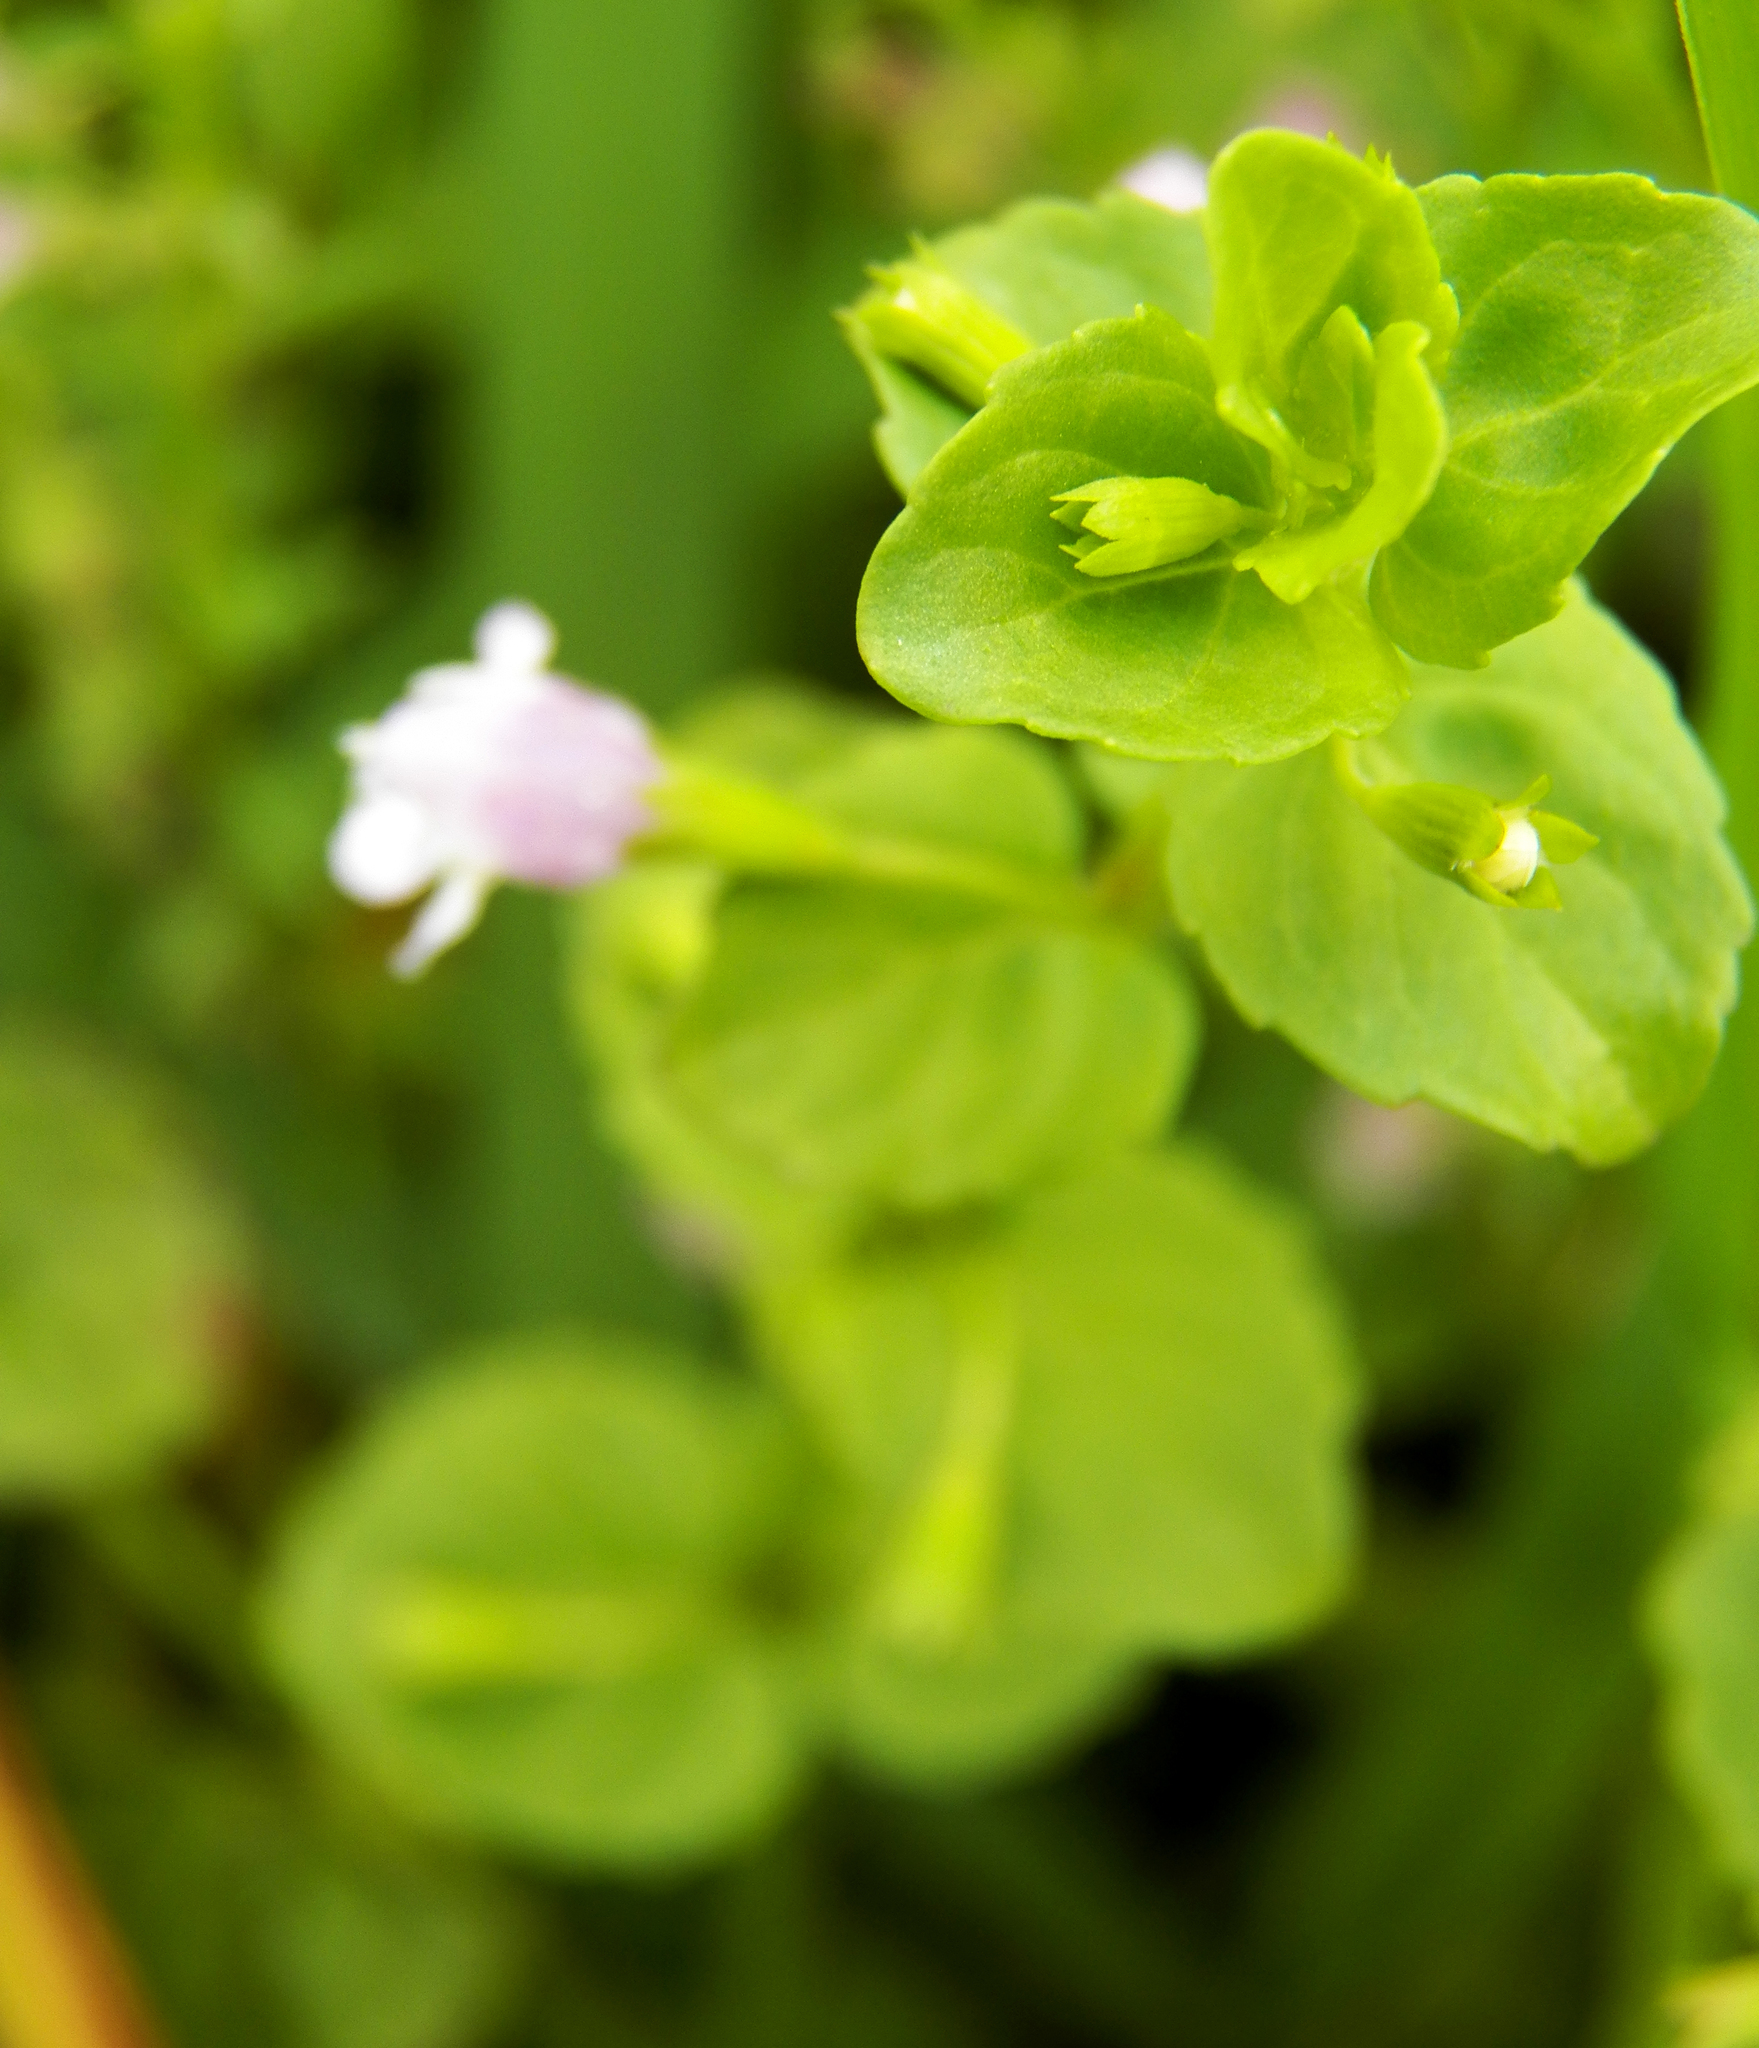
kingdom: Plantae
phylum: Tracheophyta
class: Magnoliopsida
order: Lamiales
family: Lamiaceae
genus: Clinopodium
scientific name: Clinopodium brownei
